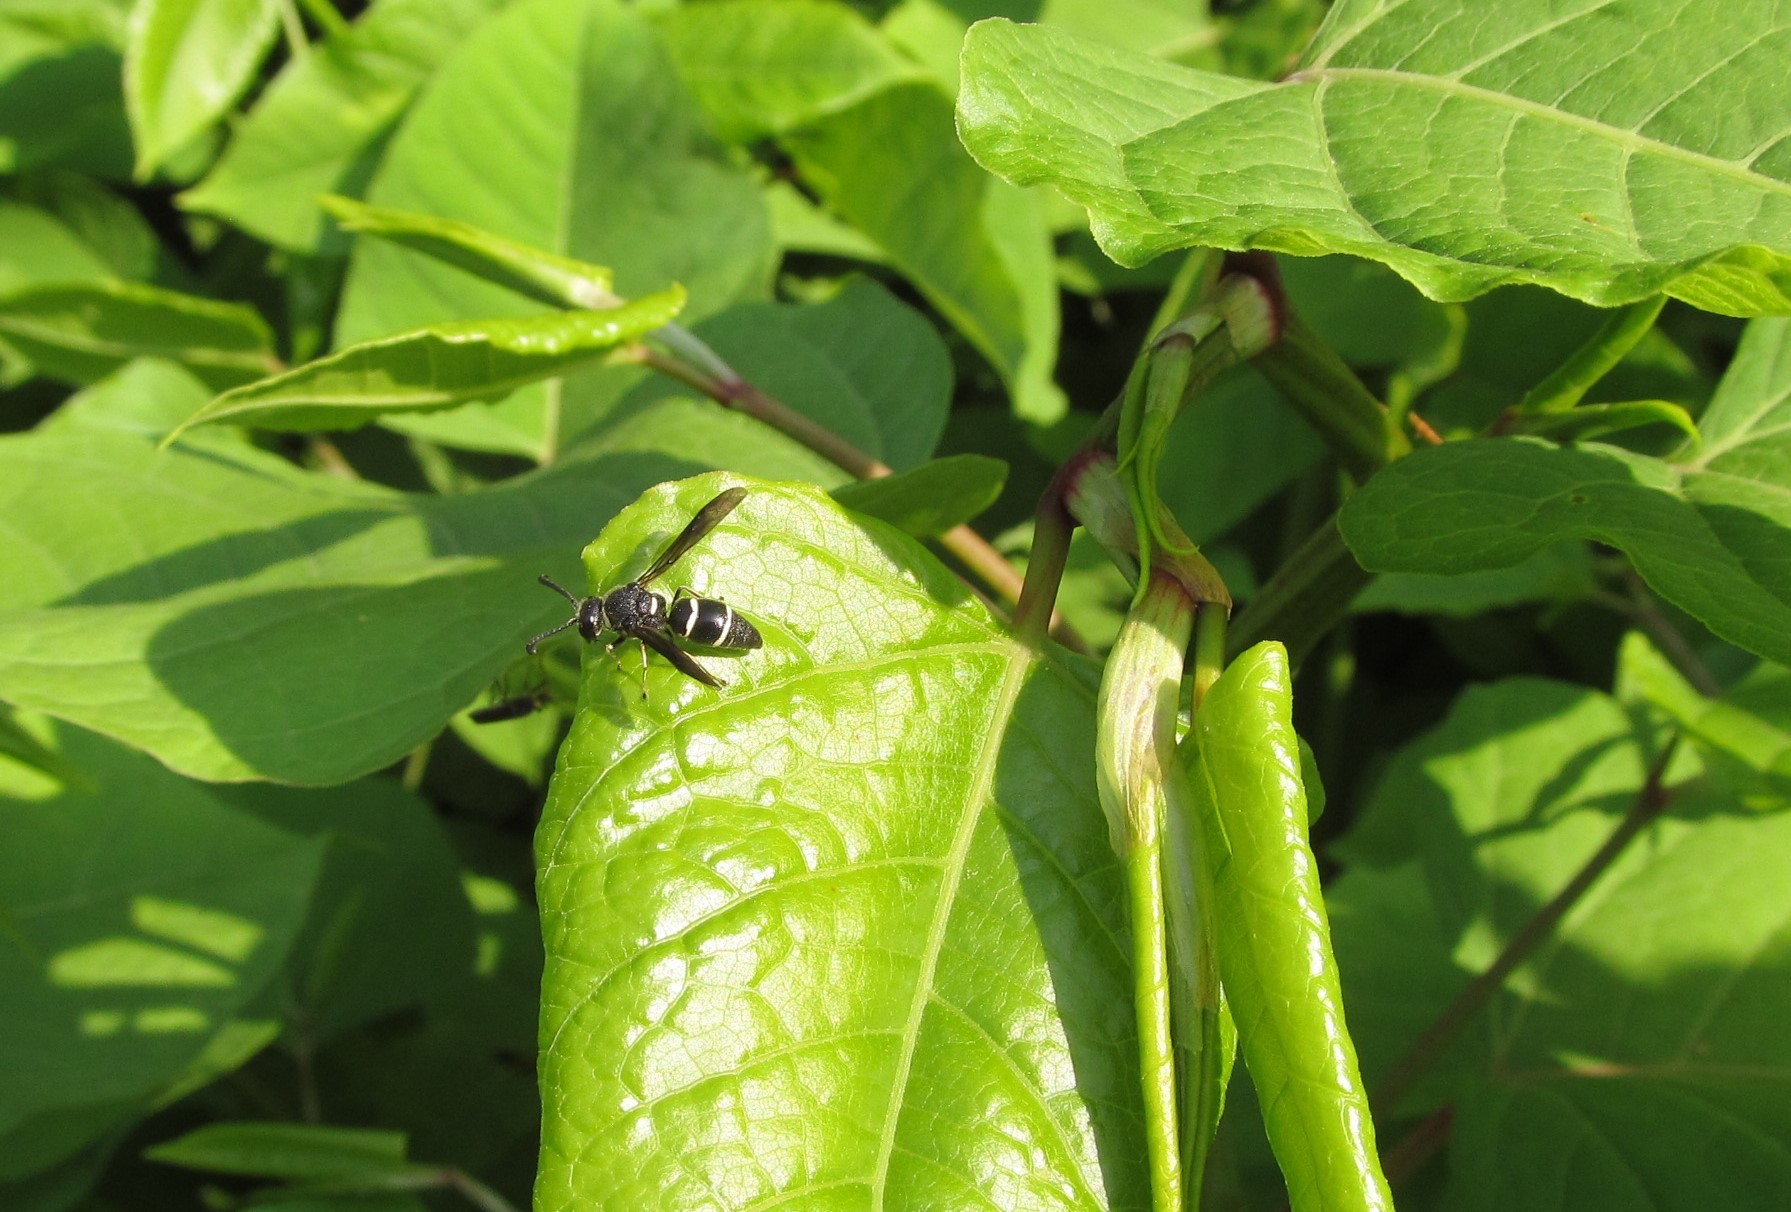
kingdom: Animalia
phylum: Arthropoda
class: Insecta
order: Hymenoptera
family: Eumenidae
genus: Euodynerus
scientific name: Euodynerus schwarzi
